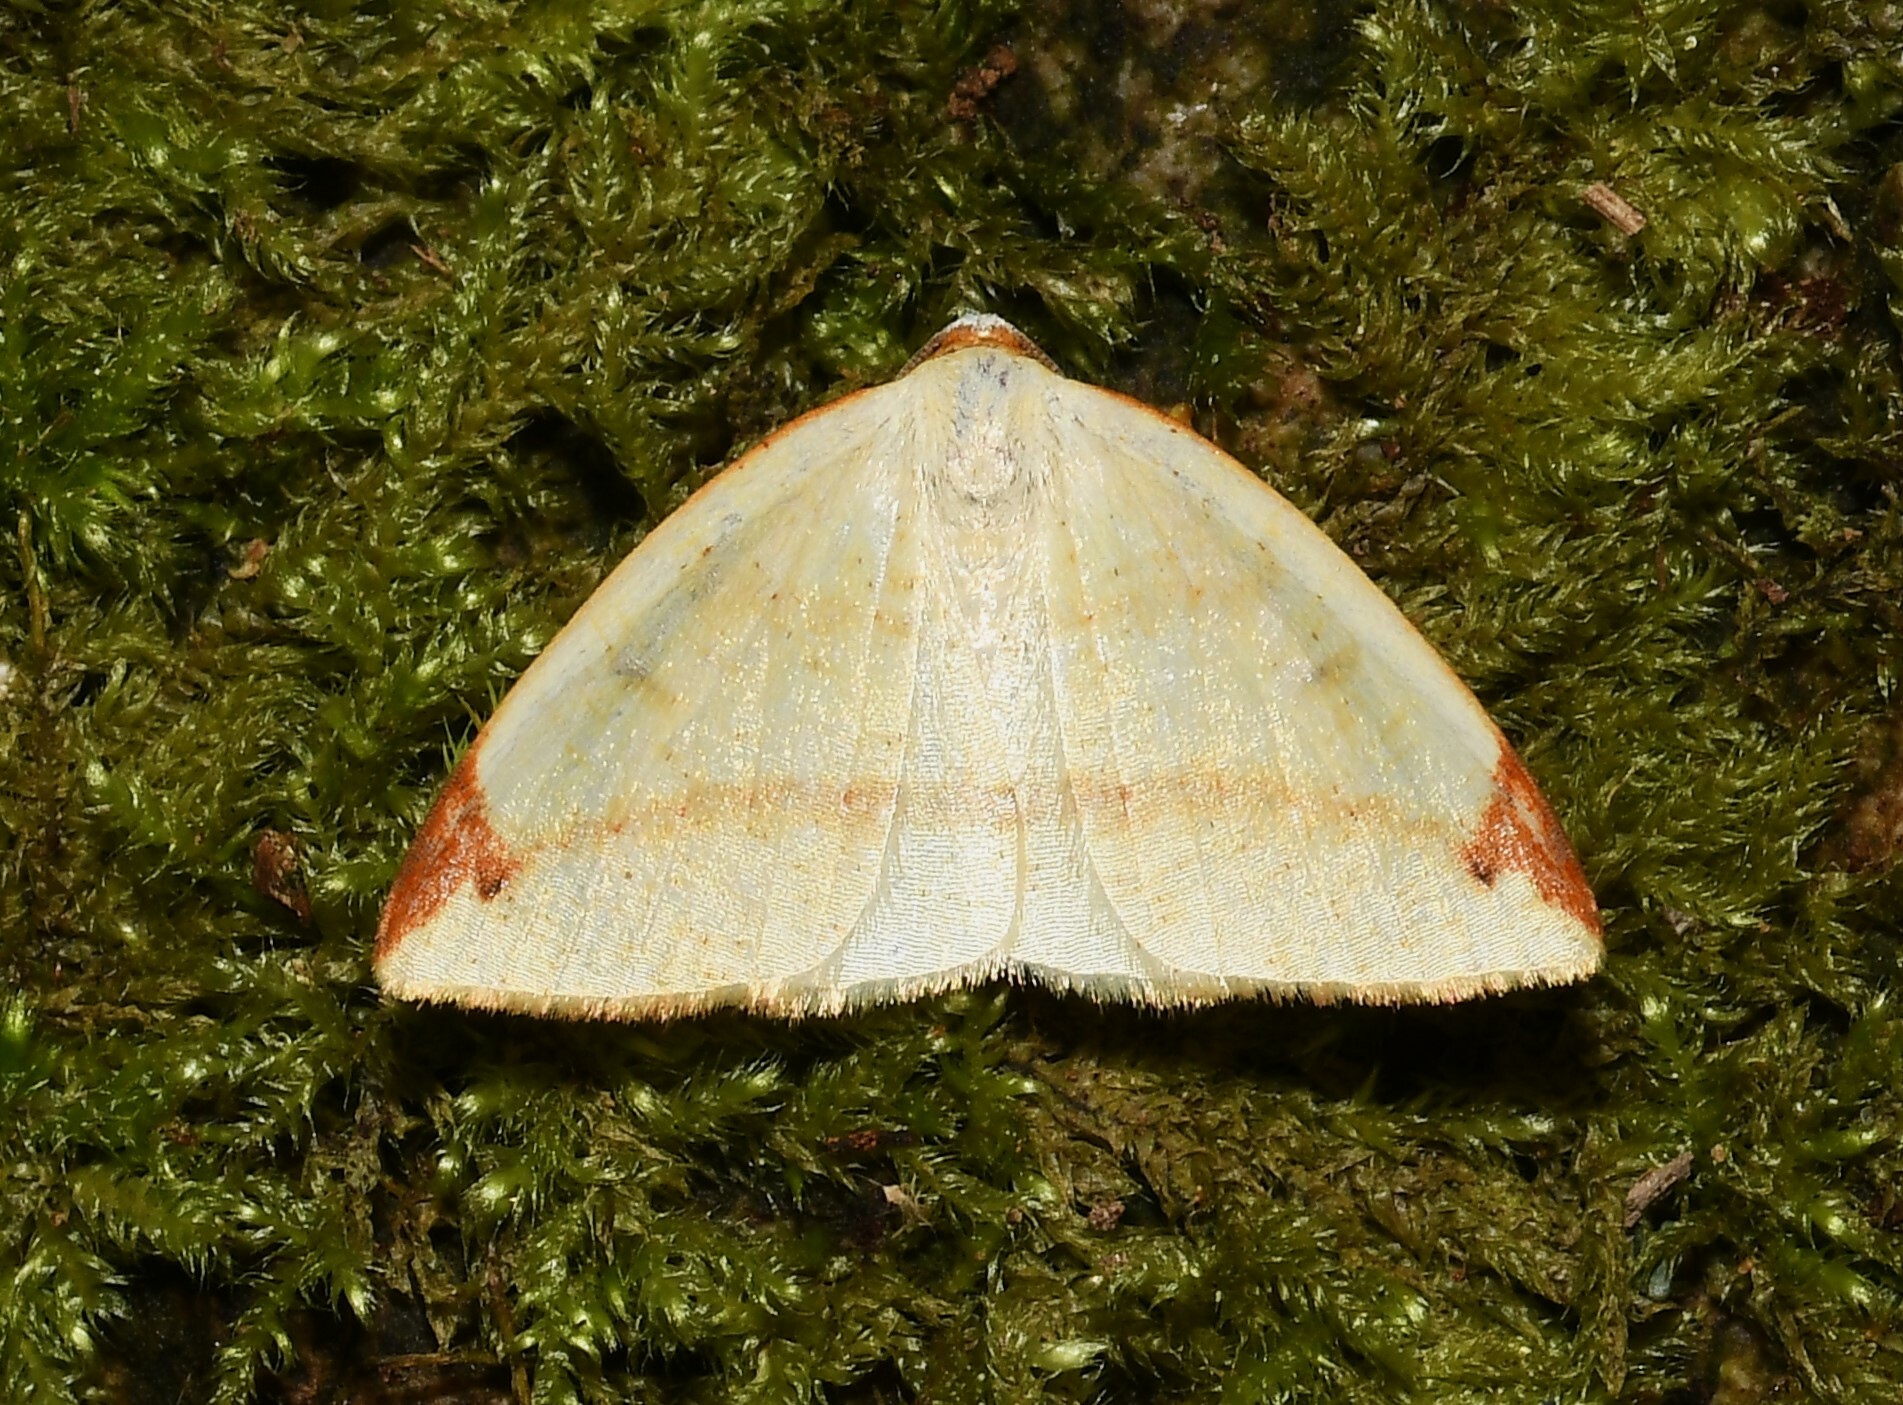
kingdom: Animalia
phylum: Arthropoda
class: Insecta
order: Lepidoptera
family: Geometridae
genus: Microxydia
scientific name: Microxydia orsitaria
